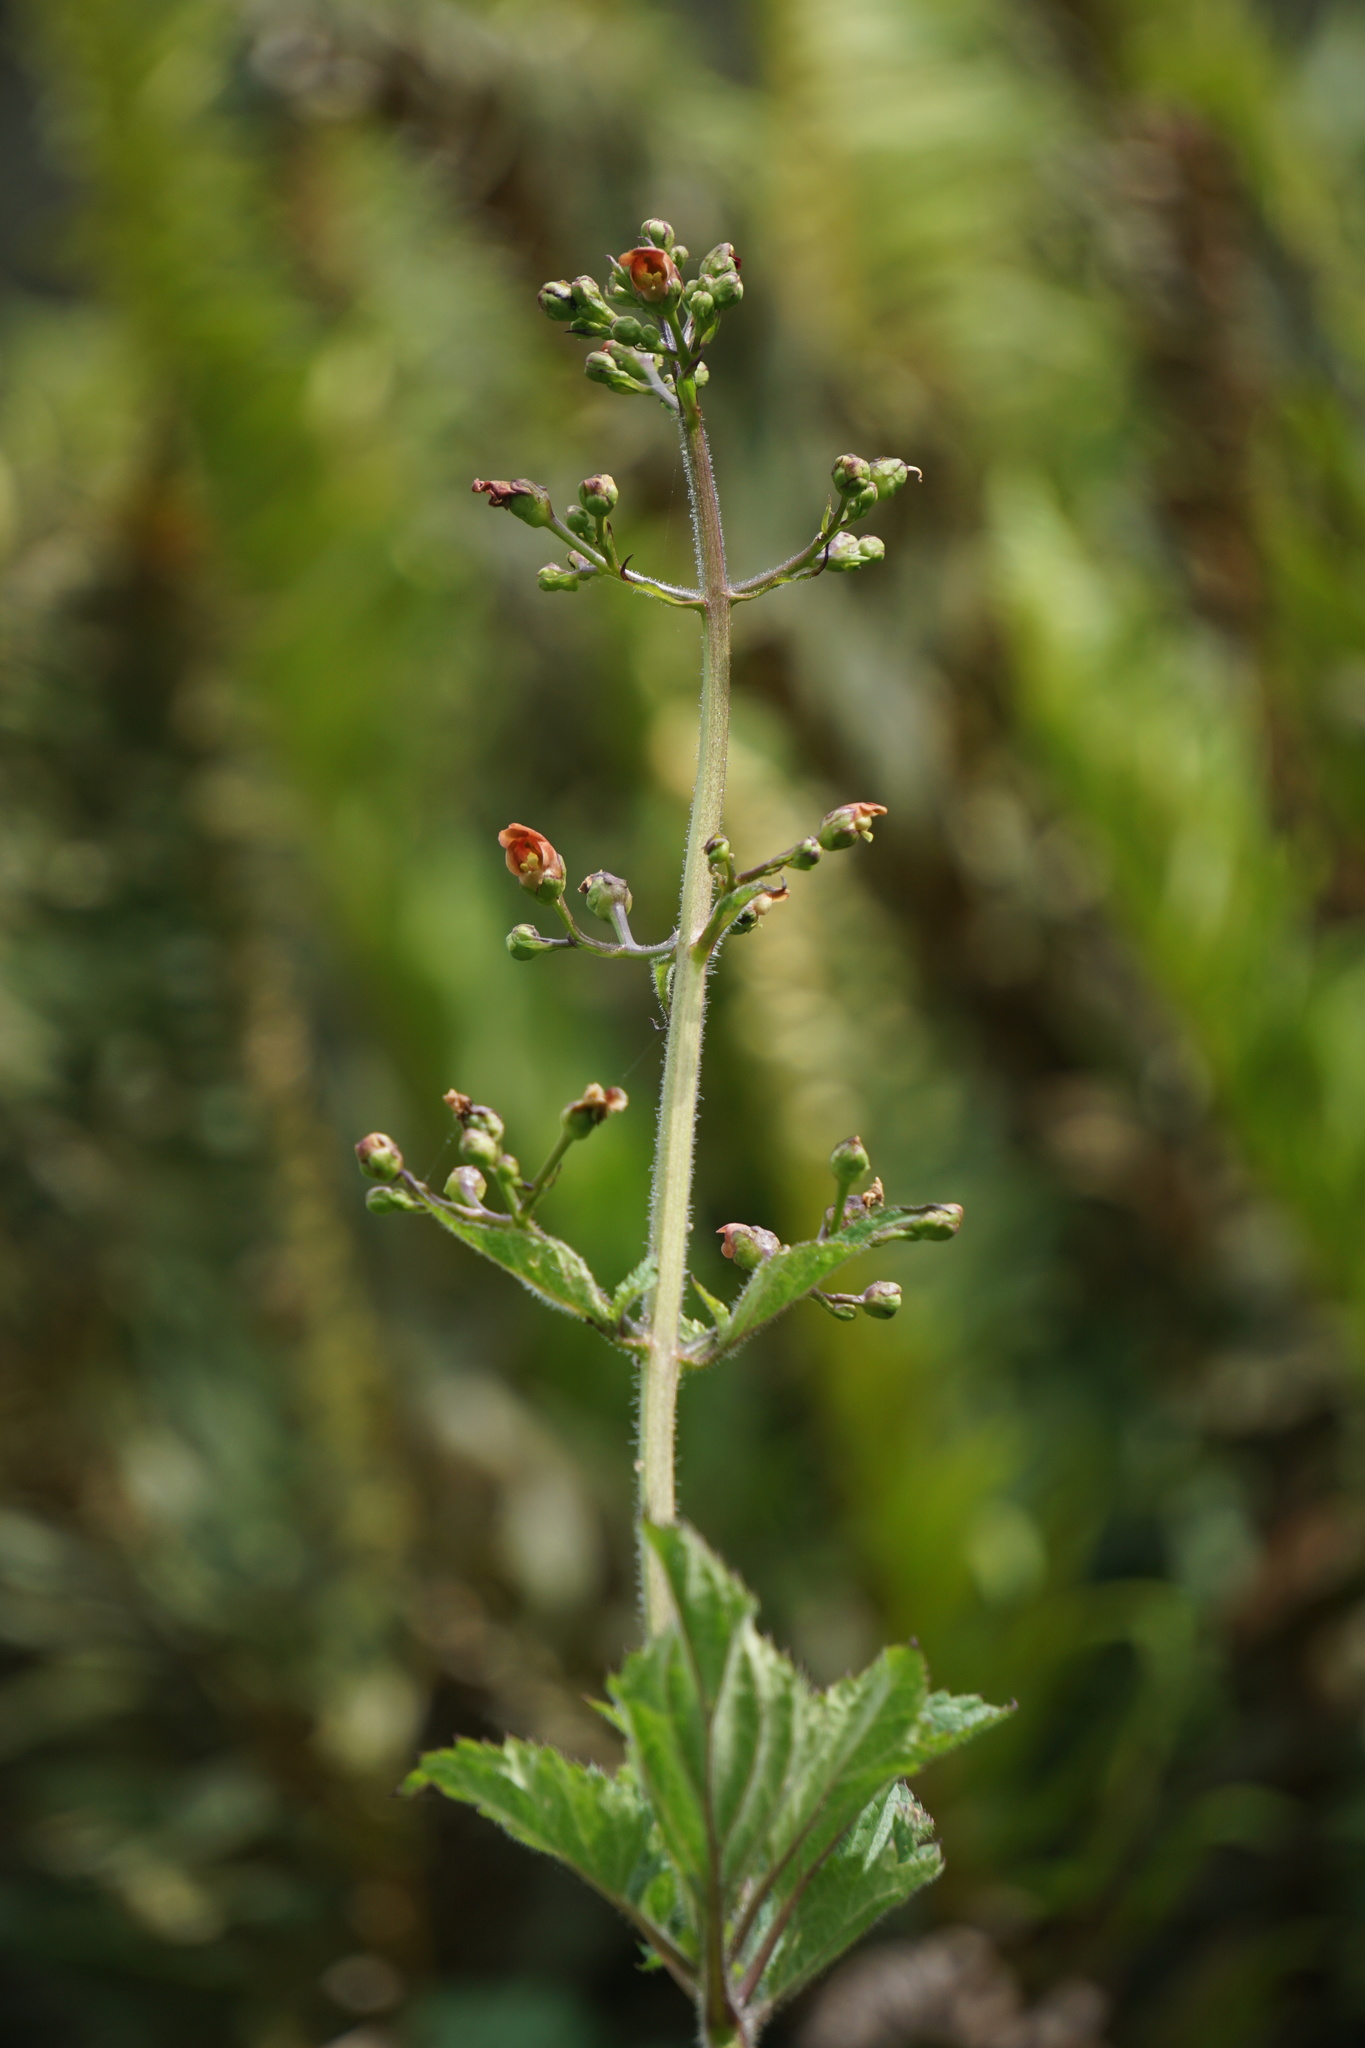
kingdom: Plantae
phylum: Tracheophyta
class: Magnoliopsida
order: Lamiales
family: Scrophulariaceae
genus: Scrophularia
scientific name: Scrophularia californica
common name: California figwort
